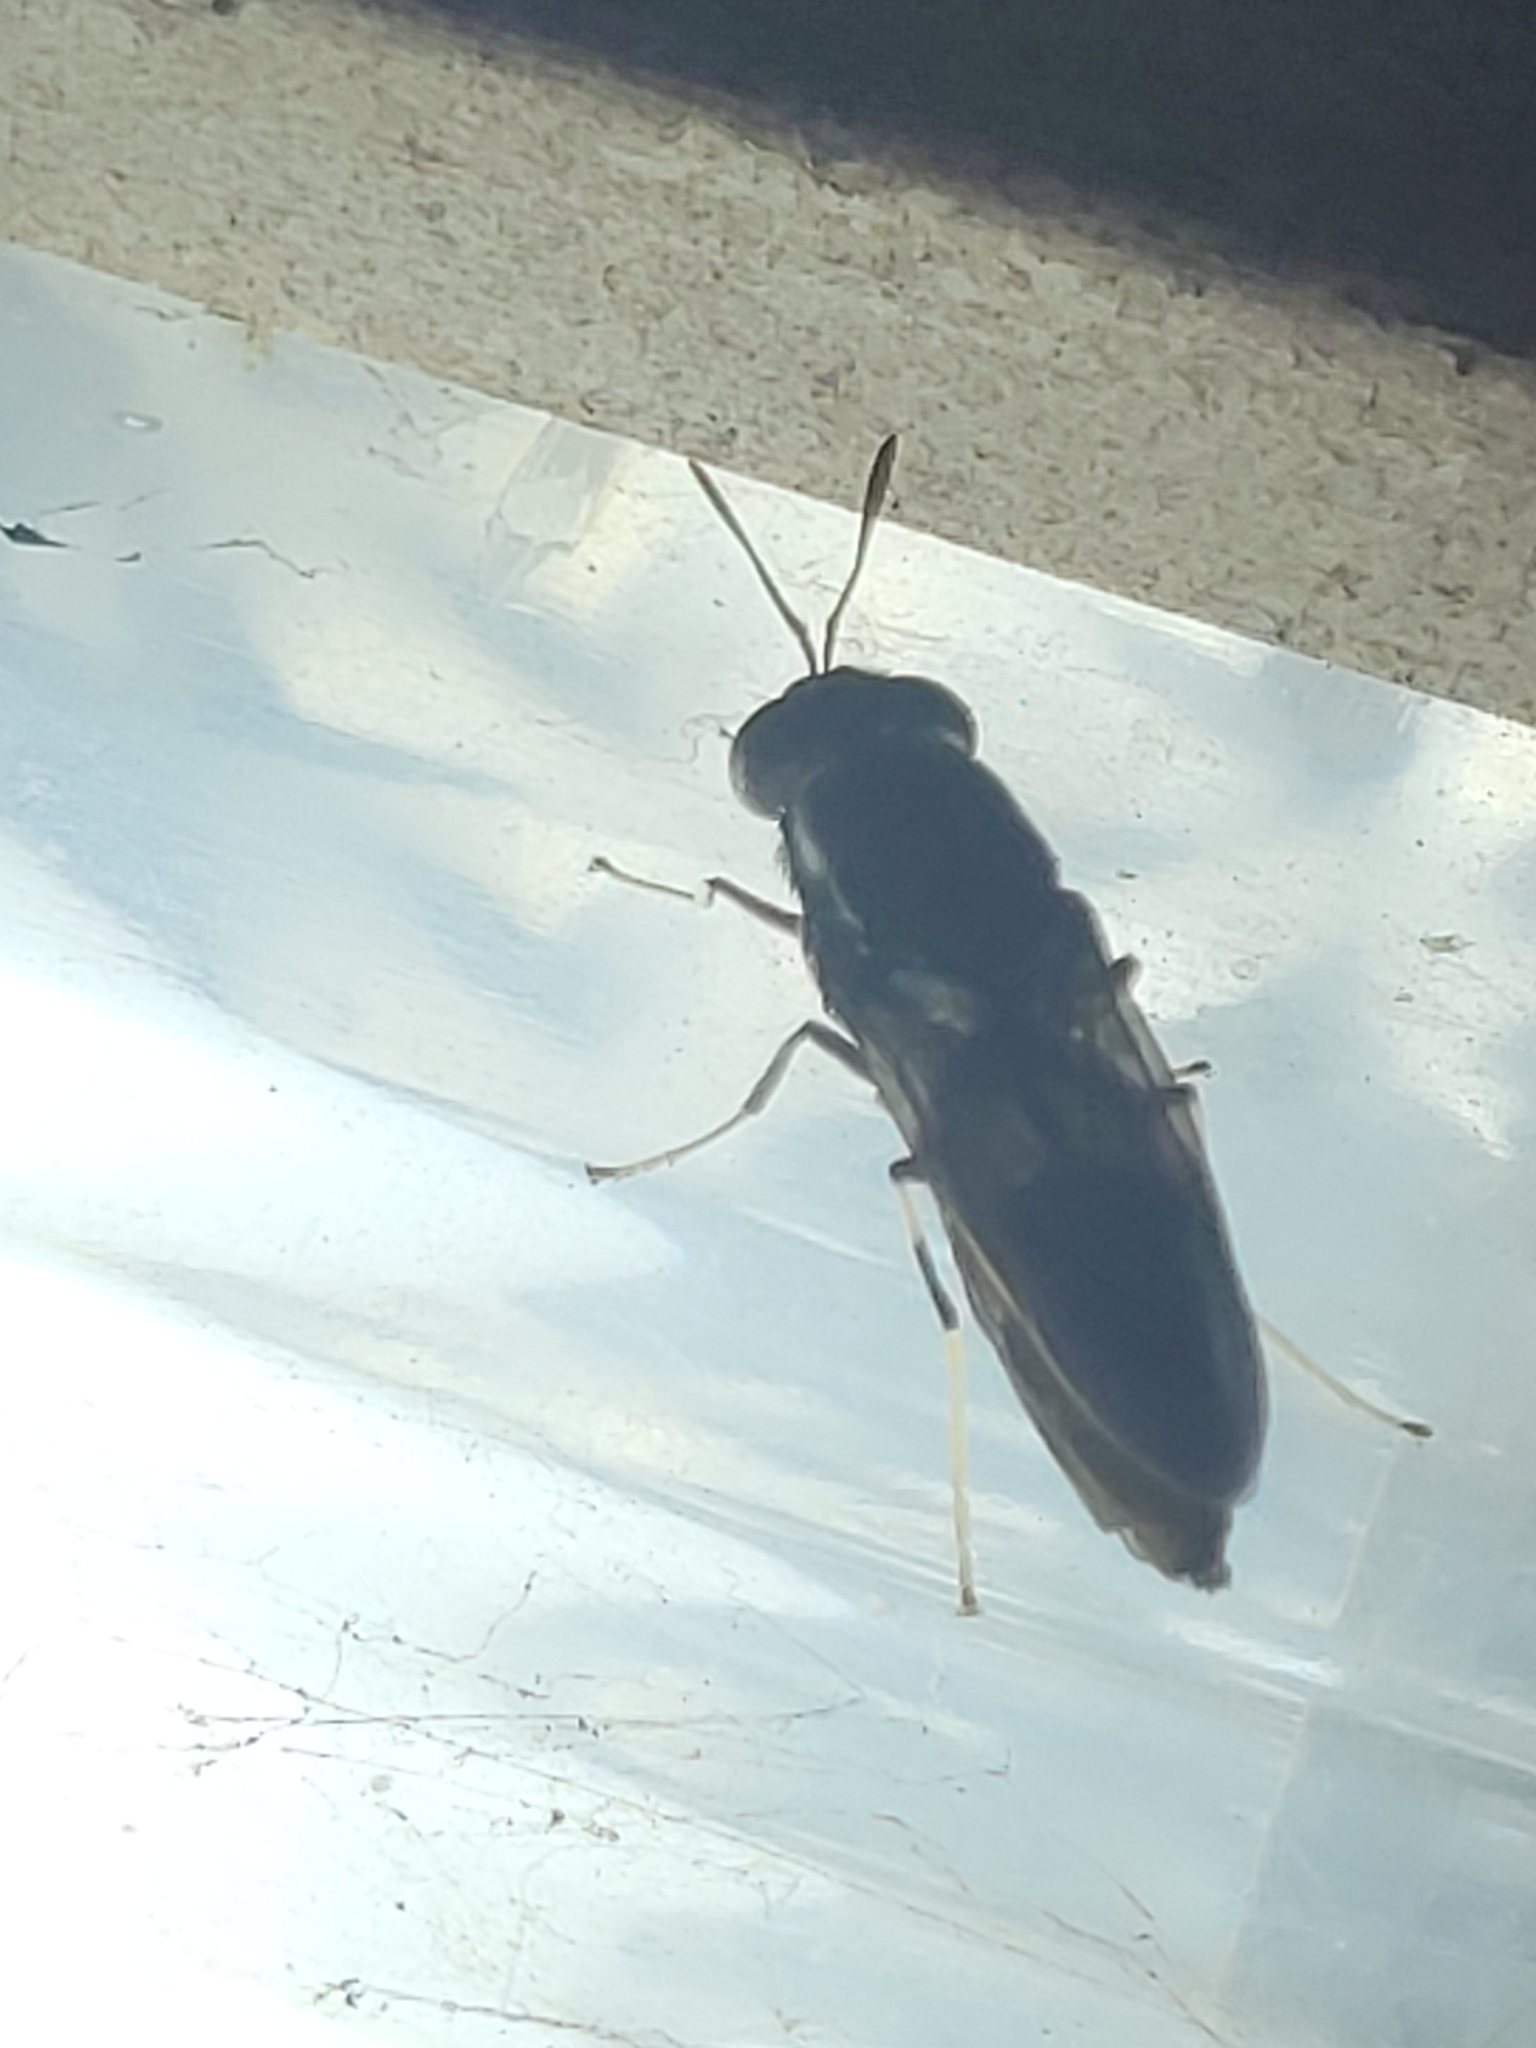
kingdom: Animalia
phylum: Arthropoda
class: Insecta
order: Diptera
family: Stratiomyidae
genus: Hermetia
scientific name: Hermetia illucens
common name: Black soldier fly
